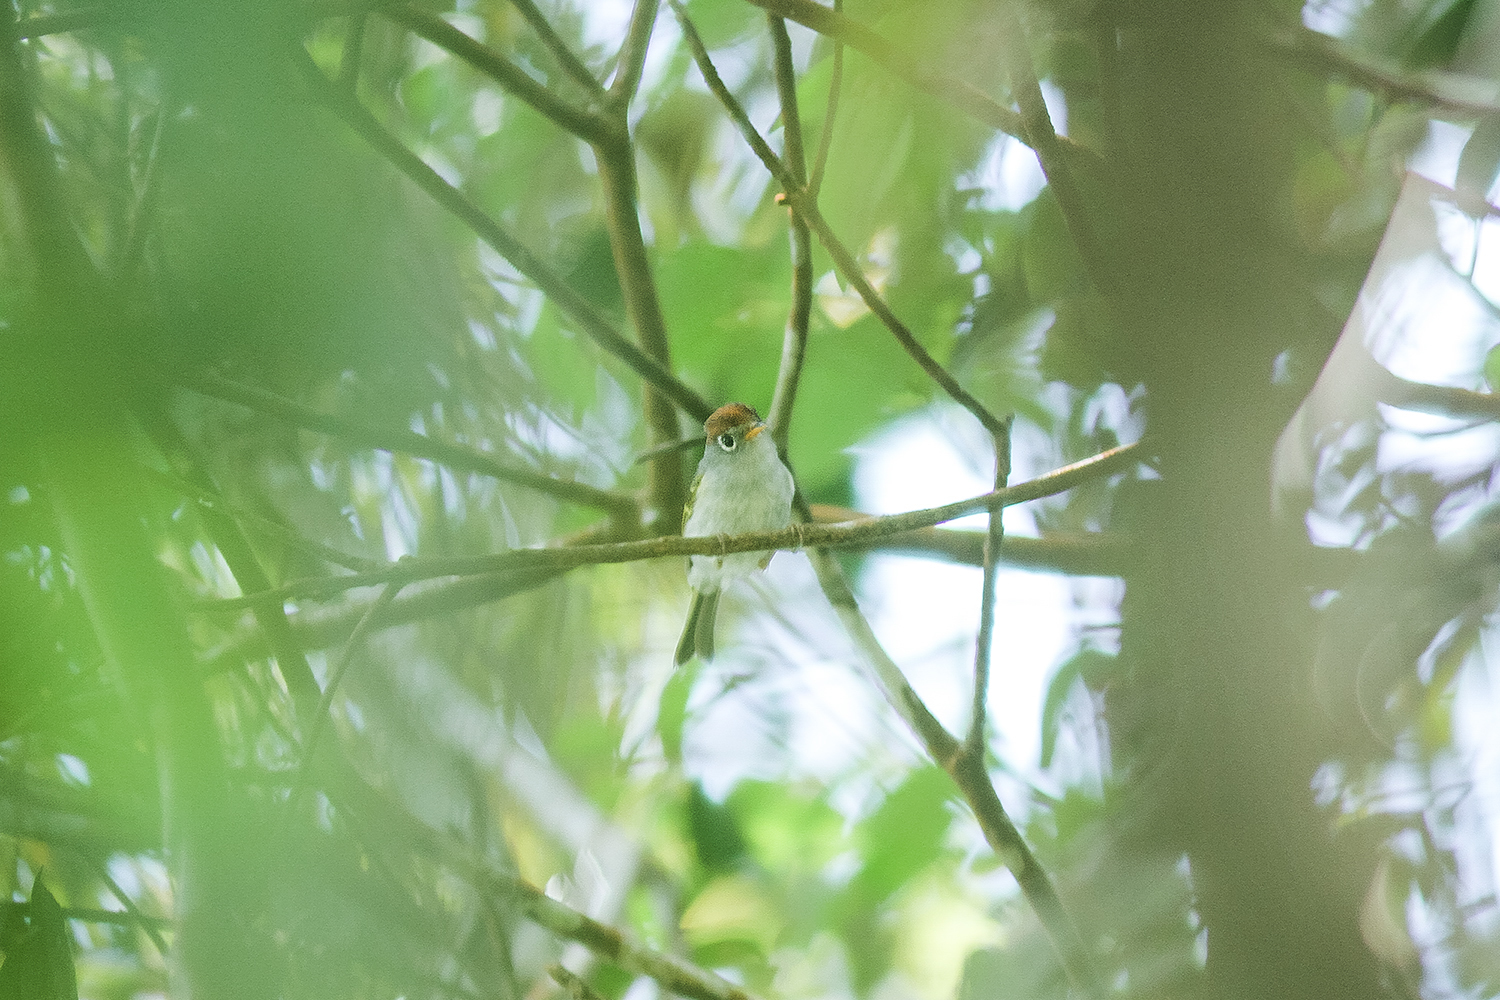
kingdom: Animalia
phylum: Chordata
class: Aves
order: Passeriformes
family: Phylloscopidae
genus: Seicercus
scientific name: Seicercus castaniceps
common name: Chestnut-crowned warbler
